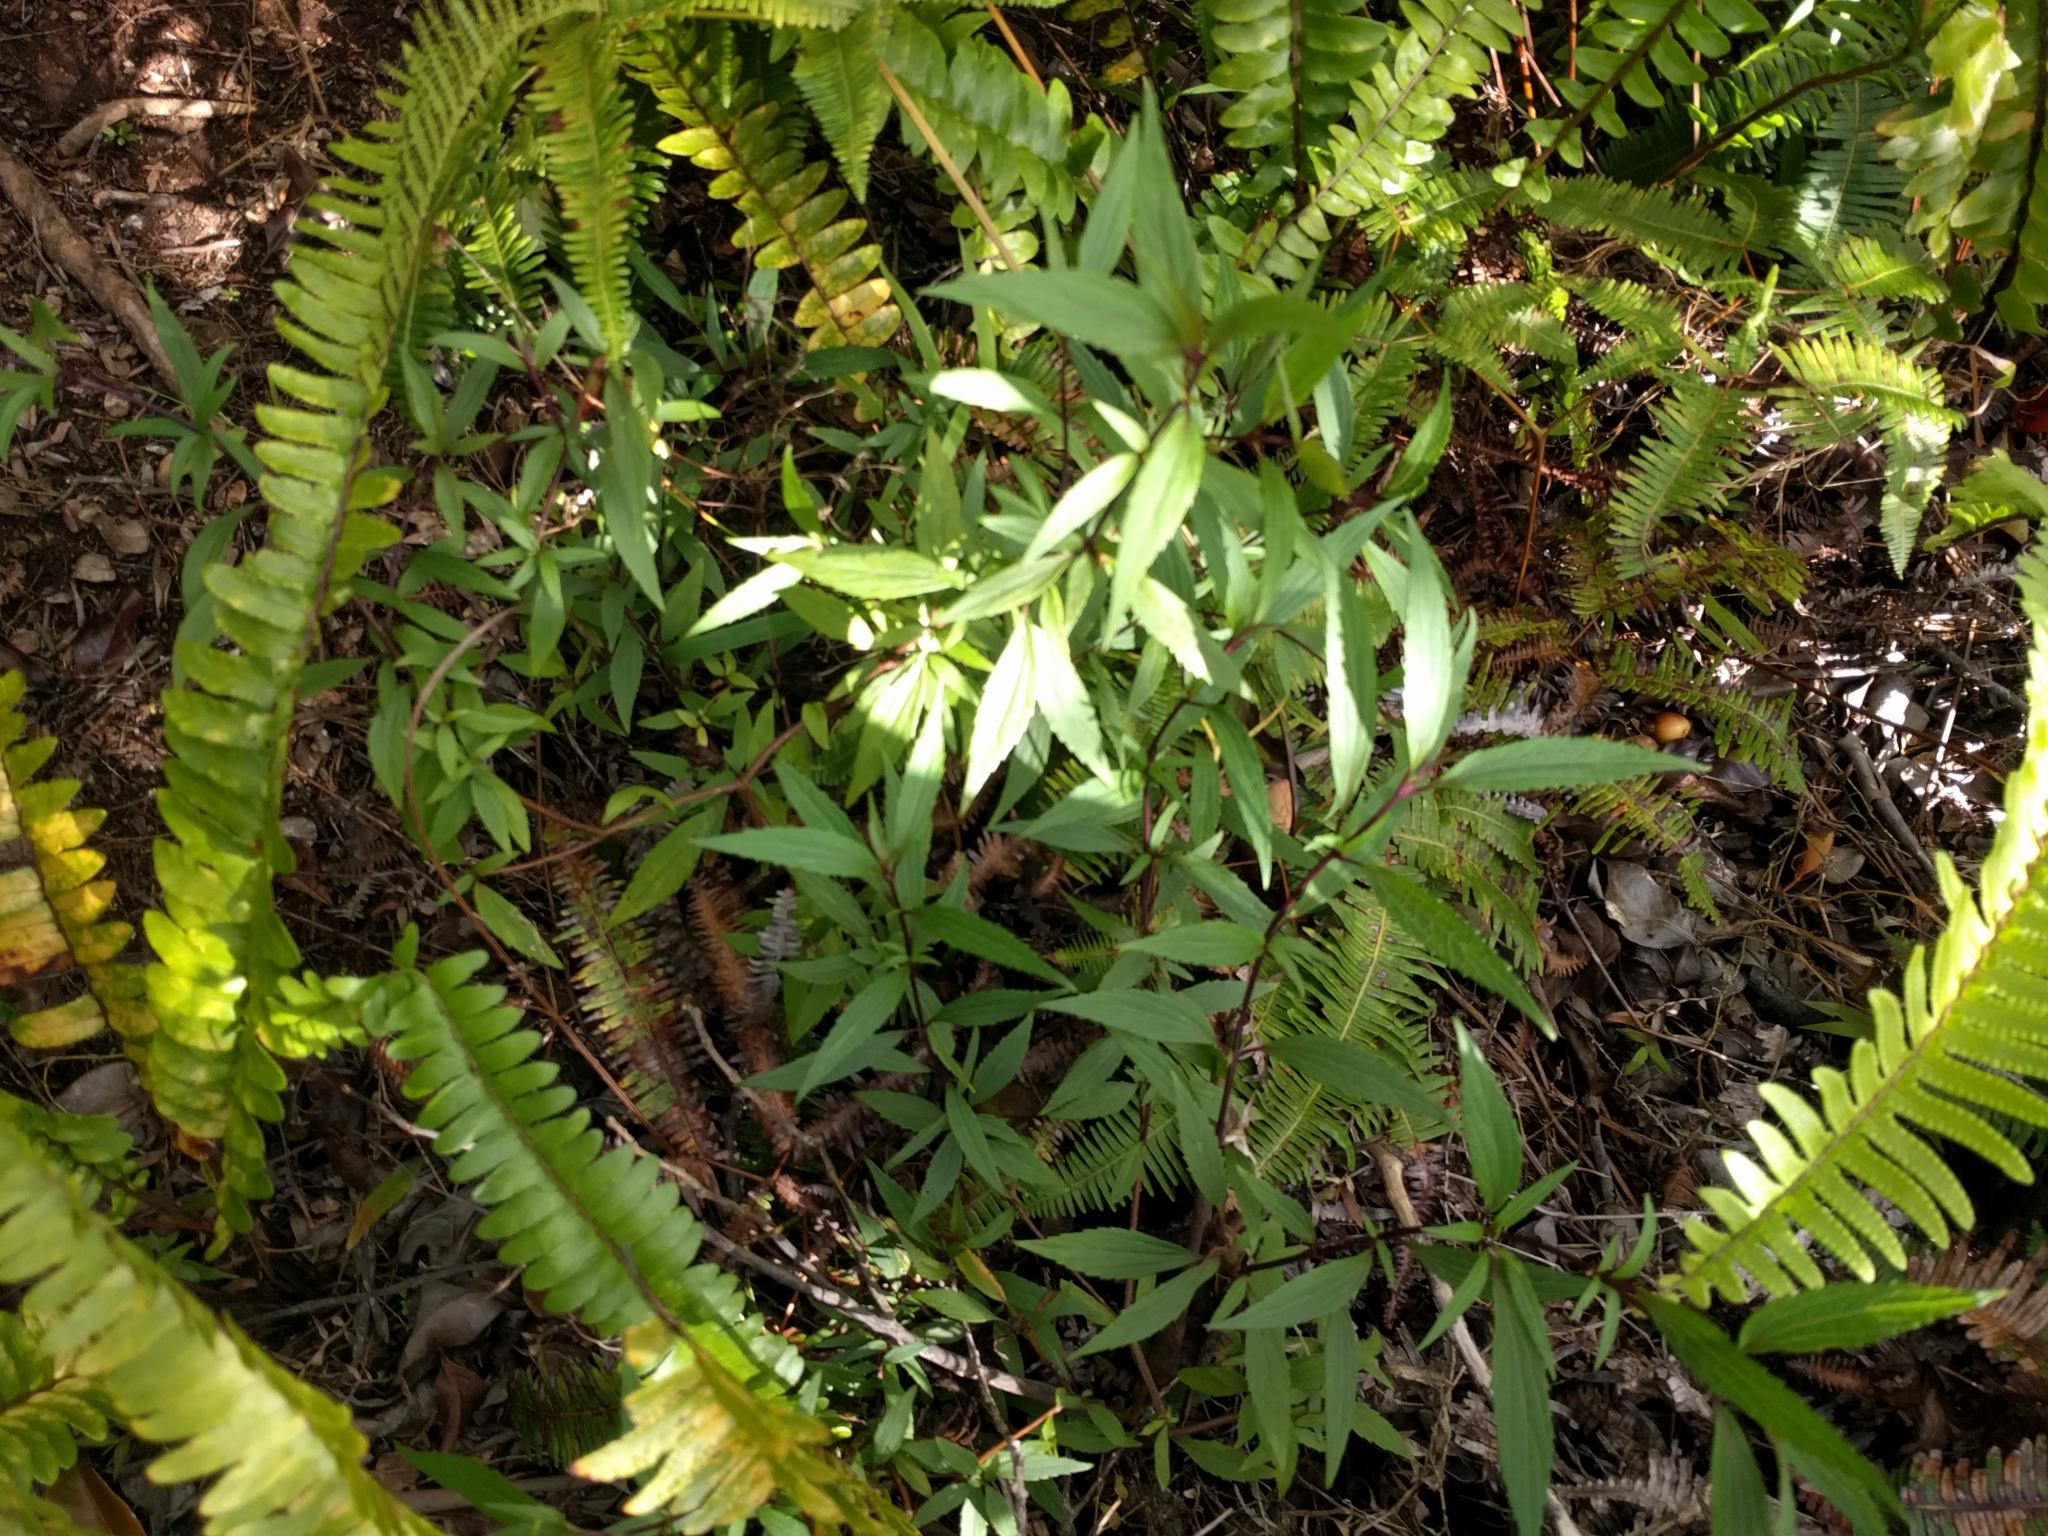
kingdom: Plantae
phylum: Tracheophyta
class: Magnoliopsida
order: Asterales
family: Asteraceae
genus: Ageratina
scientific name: Ageratina riparia
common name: Creeping croftonweed
